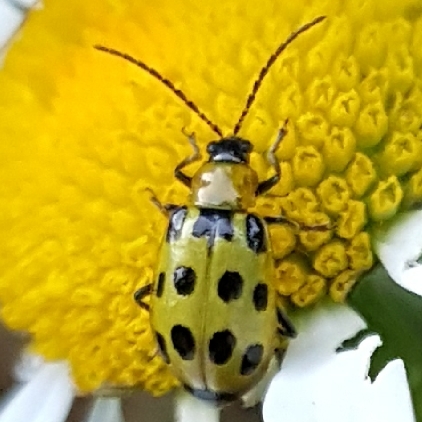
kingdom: Animalia
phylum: Arthropoda
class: Insecta
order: Coleoptera
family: Chrysomelidae
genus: Diabrotica
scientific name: Diabrotica undecimpunctata
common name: Spotted cucumber beetle
